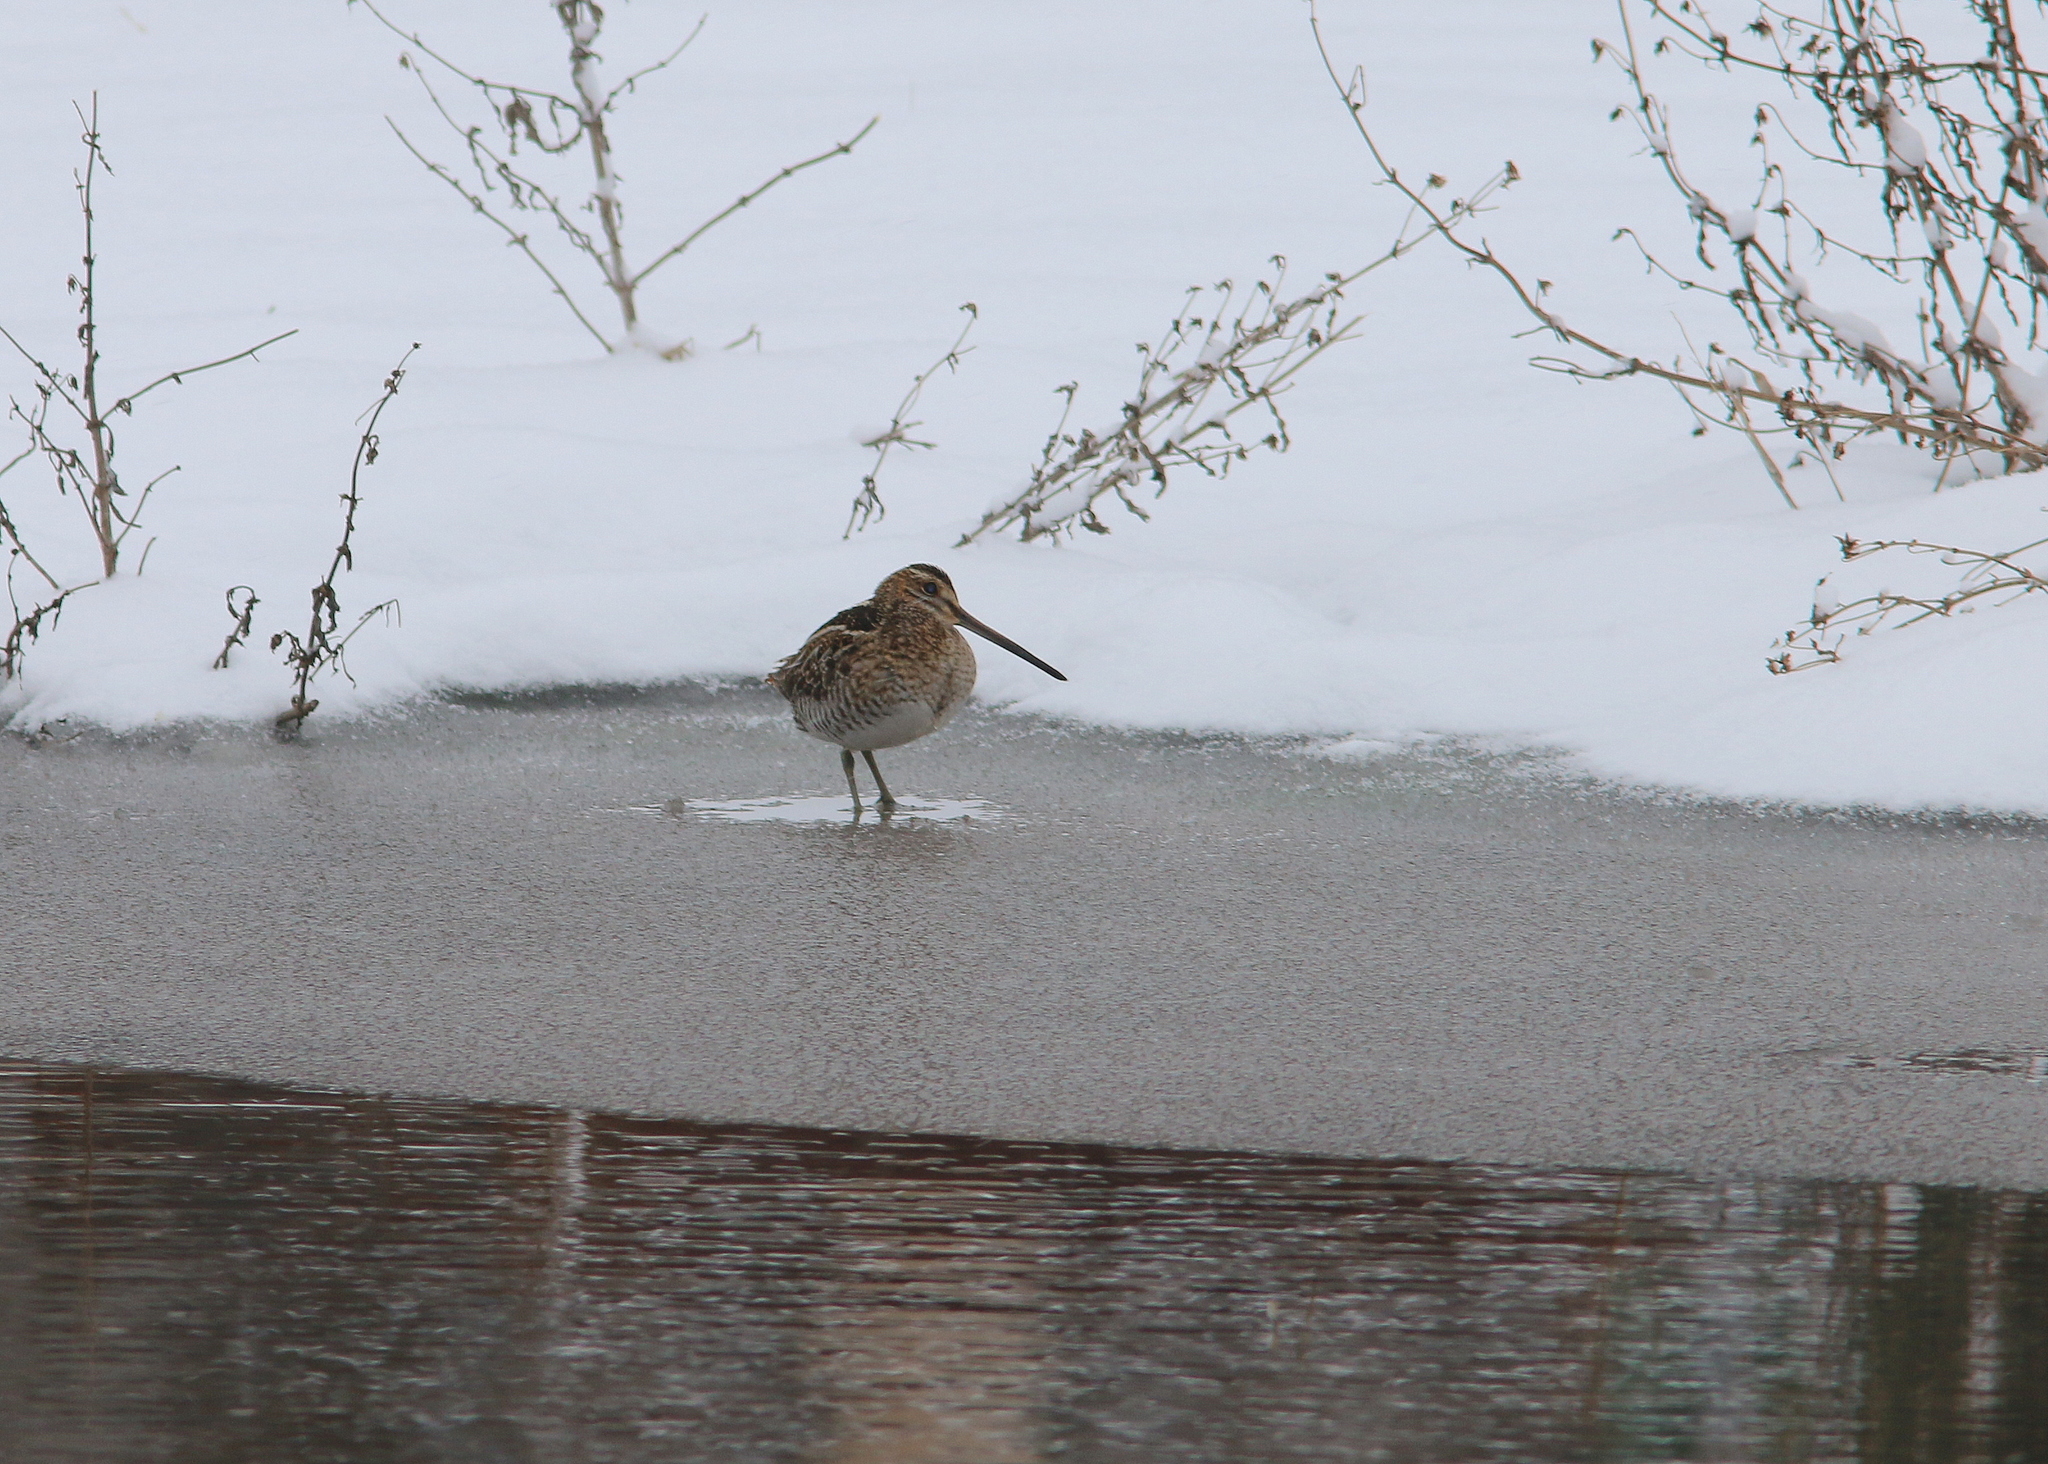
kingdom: Animalia
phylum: Chordata
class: Aves
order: Charadriiformes
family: Scolopacidae
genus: Gallinago
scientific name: Gallinago delicata
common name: Wilson's snipe
